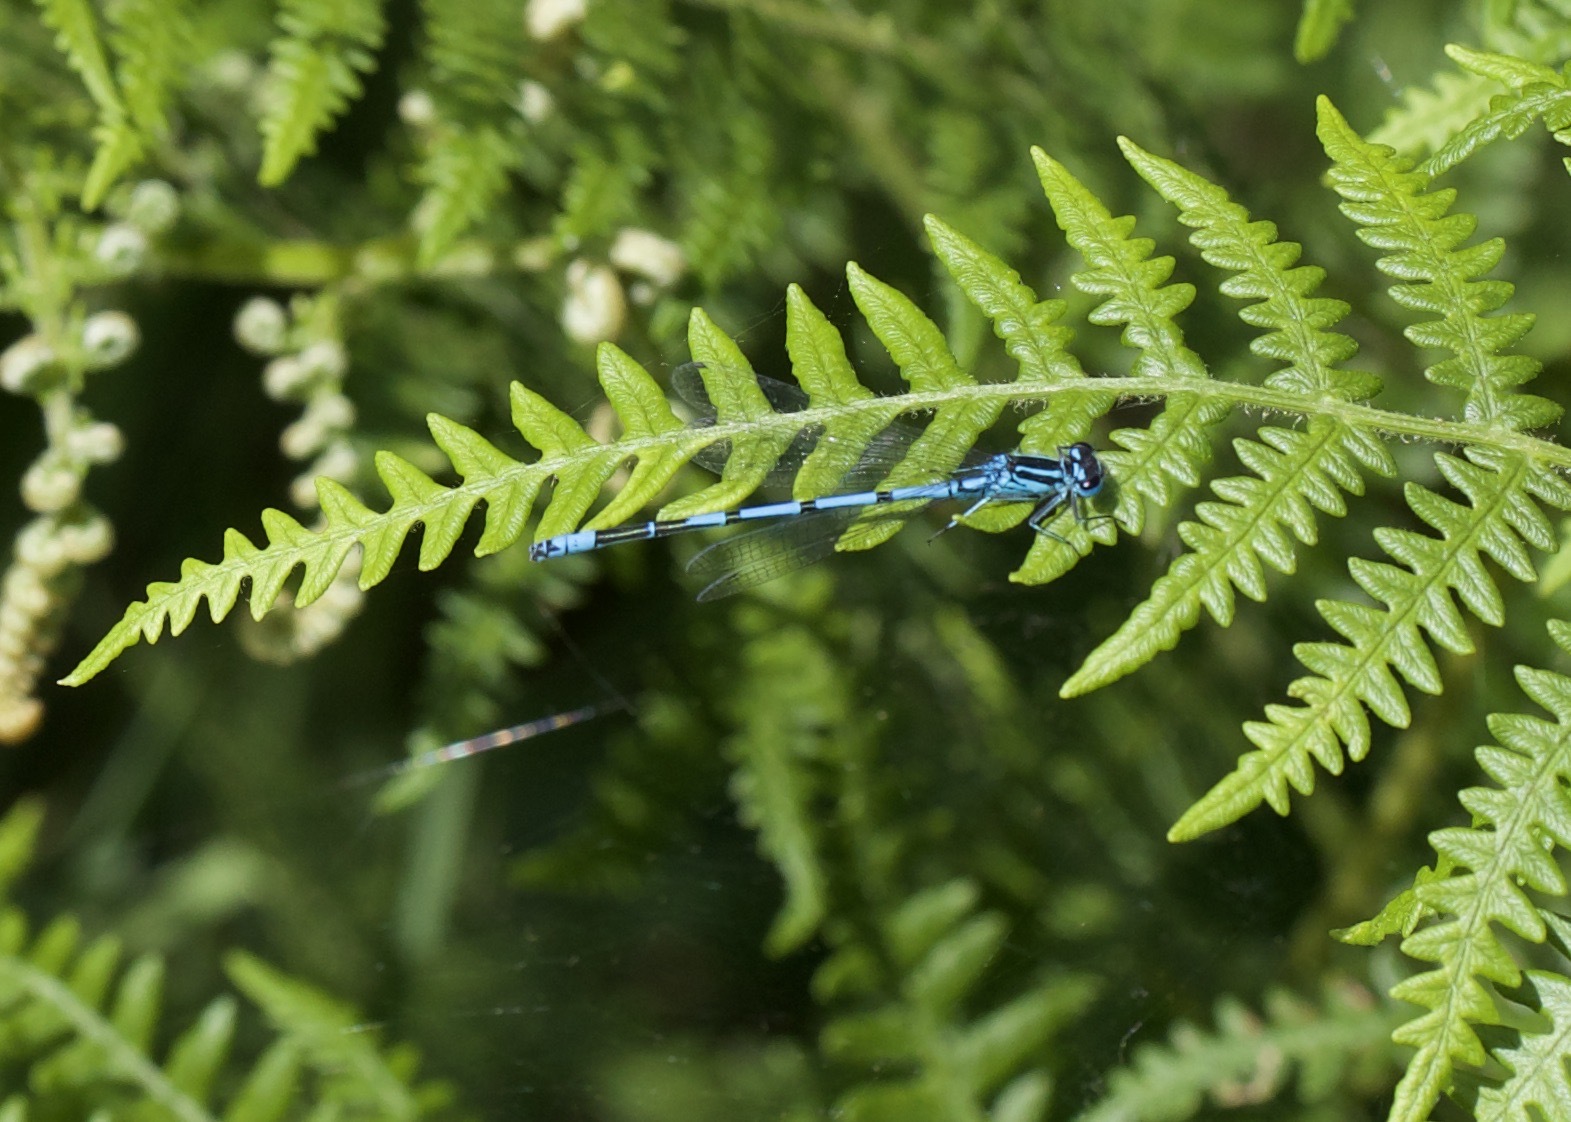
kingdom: Animalia
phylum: Arthropoda
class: Insecta
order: Odonata
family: Coenagrionidae
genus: Coenagrion
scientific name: Coenagrion puella
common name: Azure damselfly
